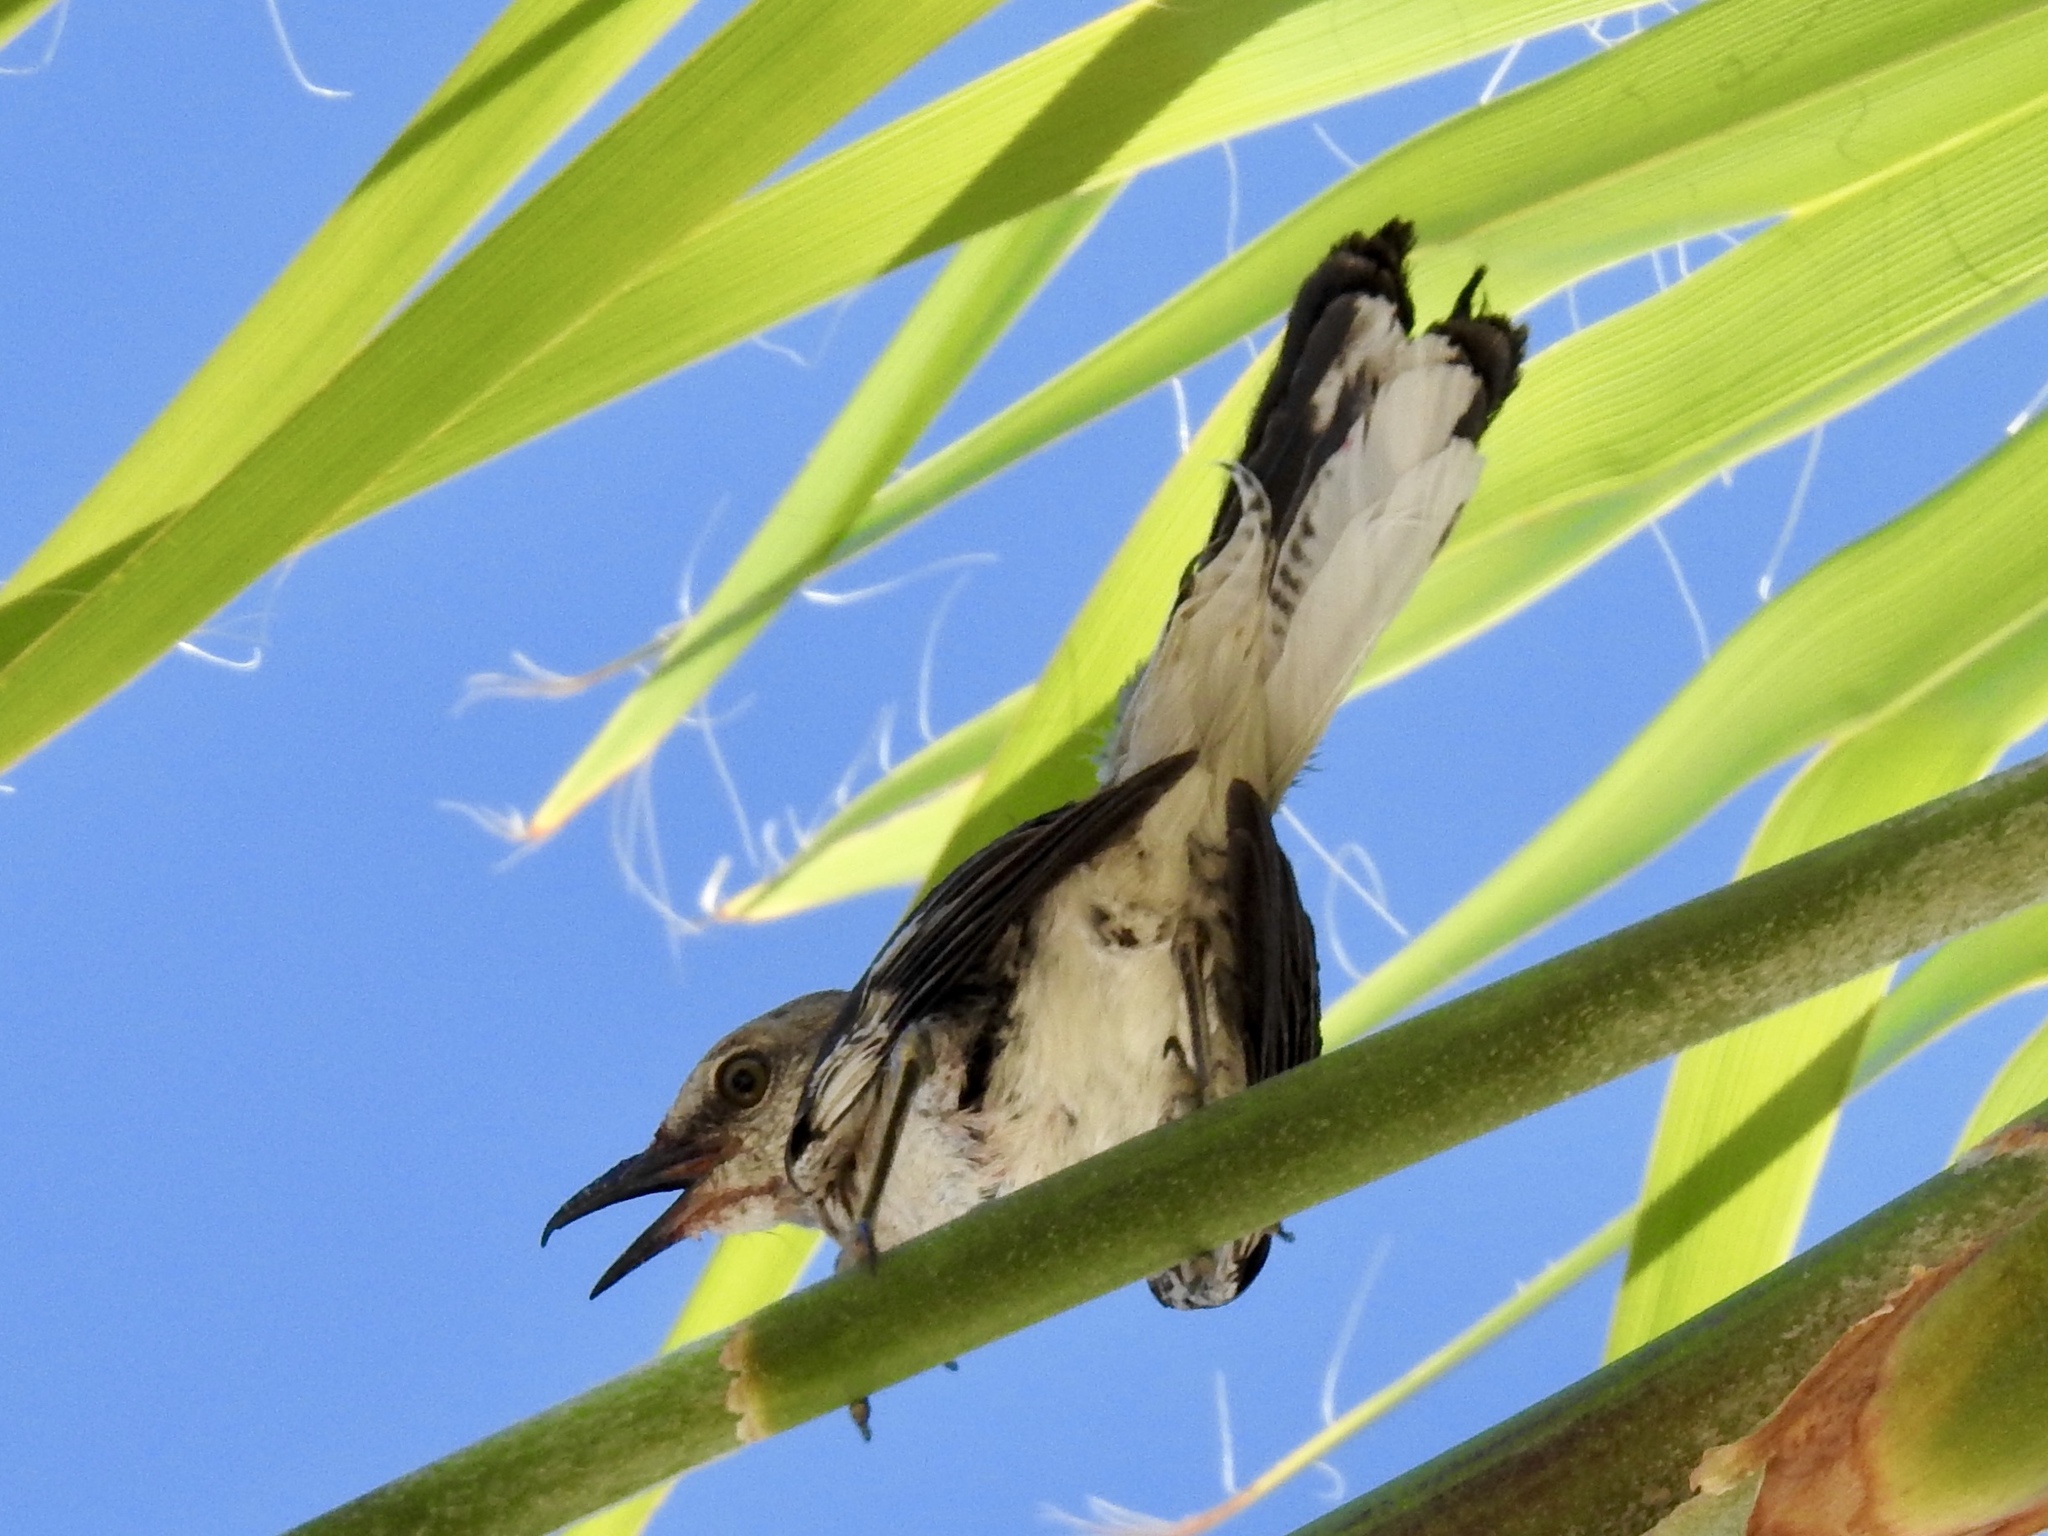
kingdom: Animalia
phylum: Chordata
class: Aves
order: Passeriformes
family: Mimidae
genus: Mimus
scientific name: Mimus polyglottos
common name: Northern mockingbird
